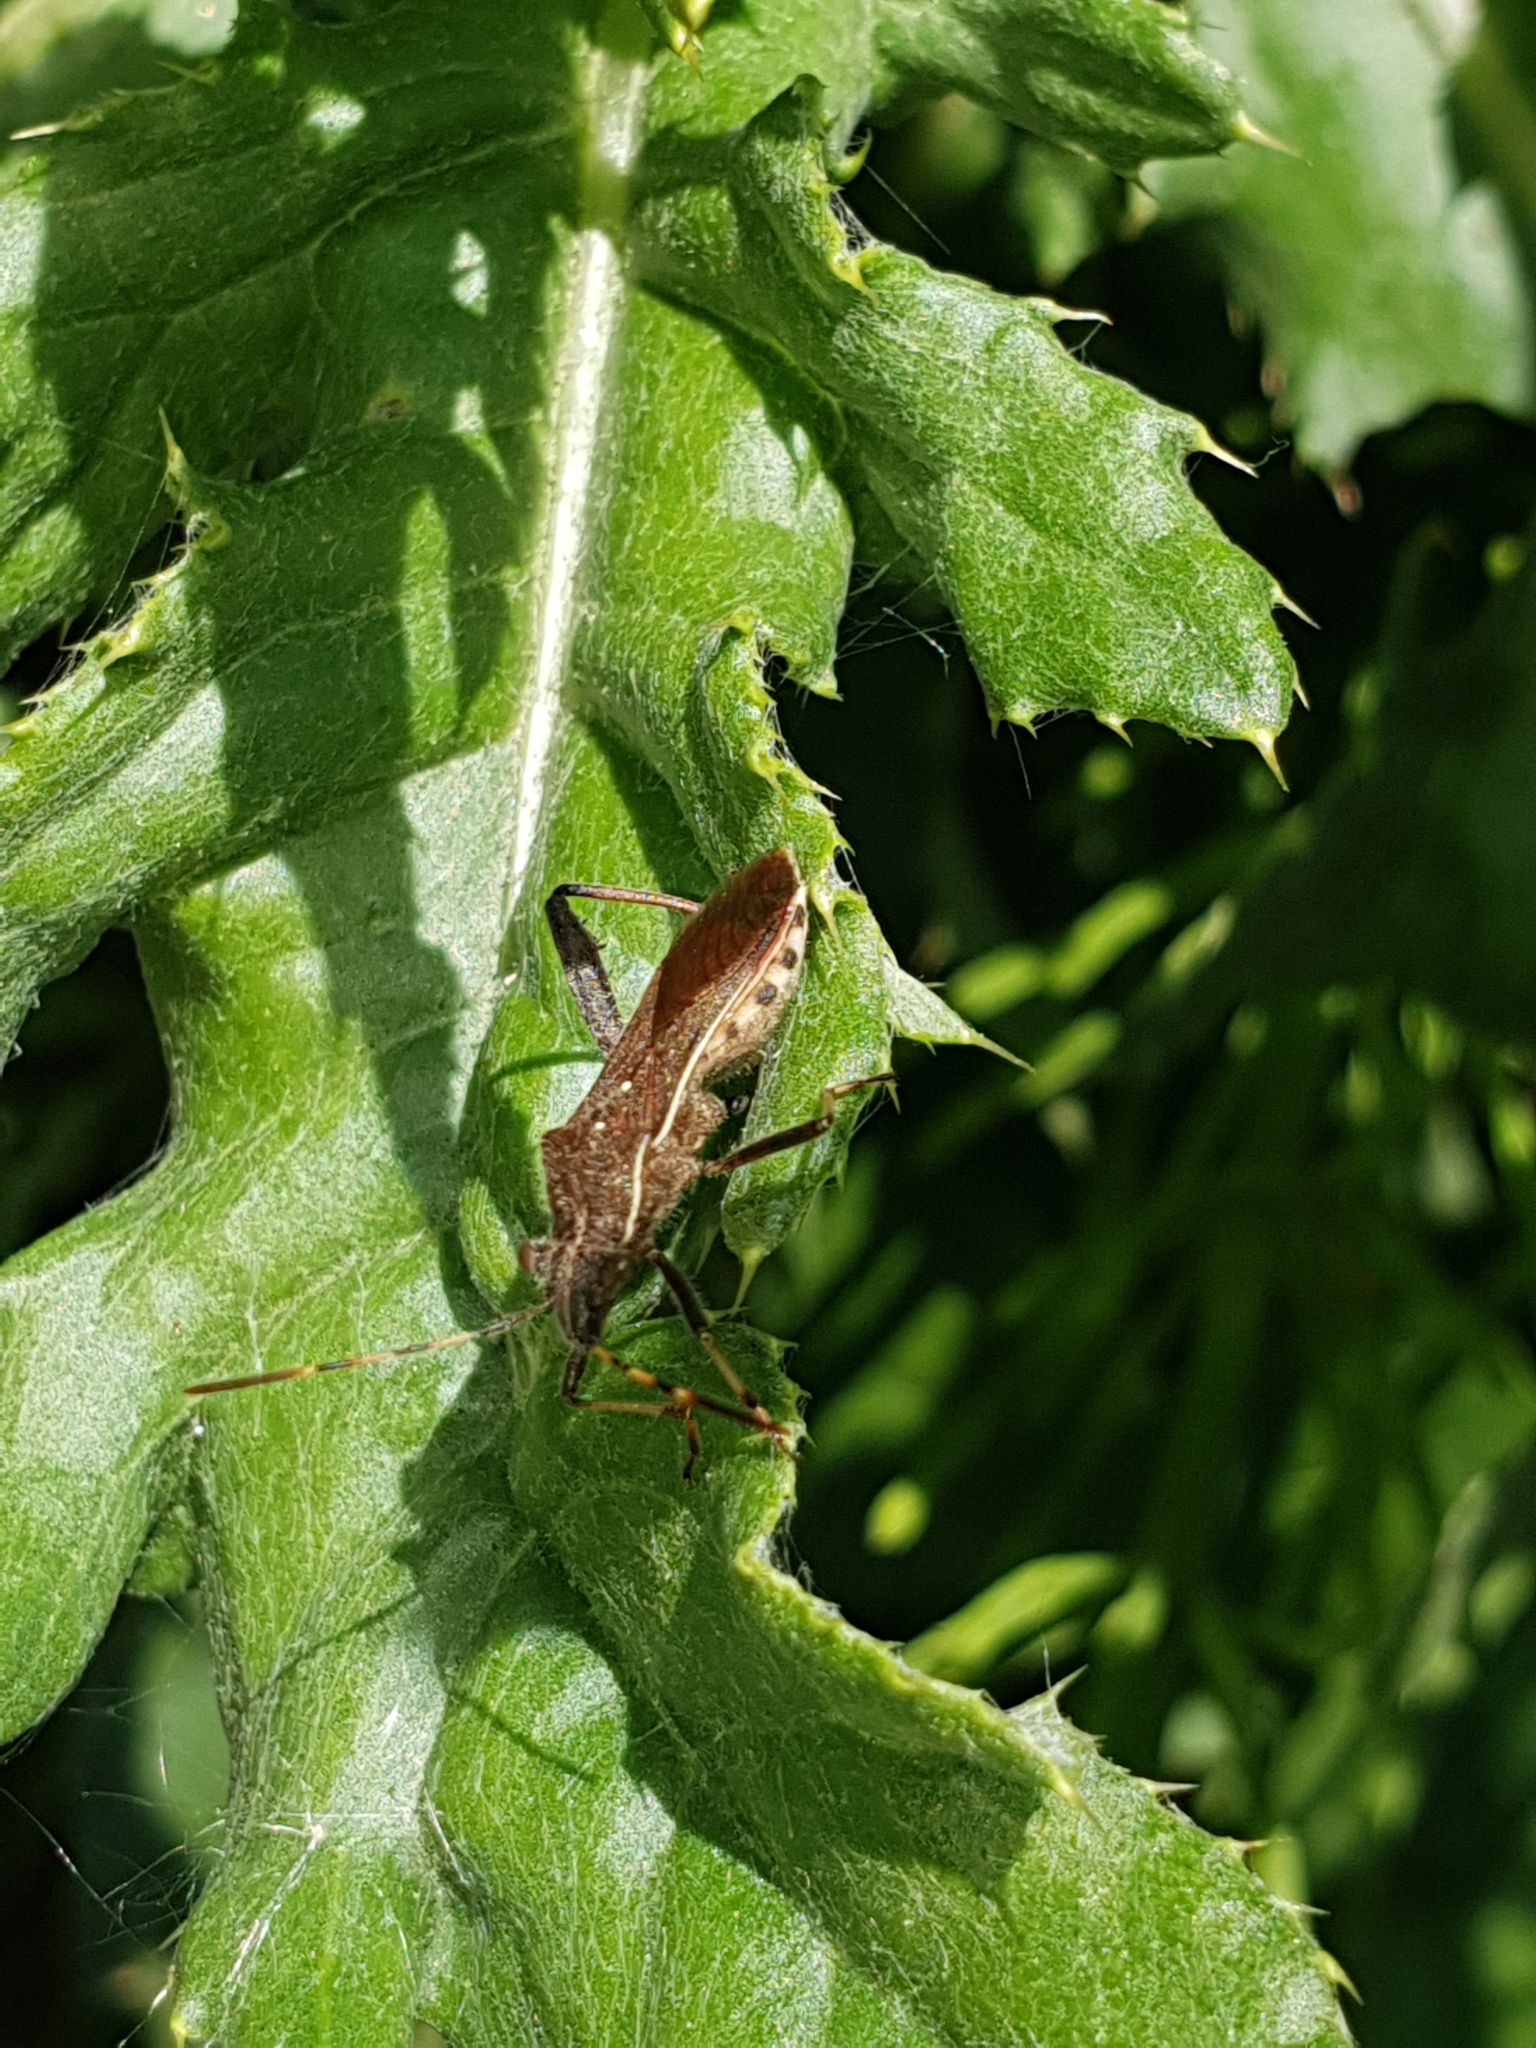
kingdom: Animalia
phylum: Arthropoda
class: Insecta
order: Hemiptera
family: Alydidae
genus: Camptopus
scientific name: Camptopus lateralis
